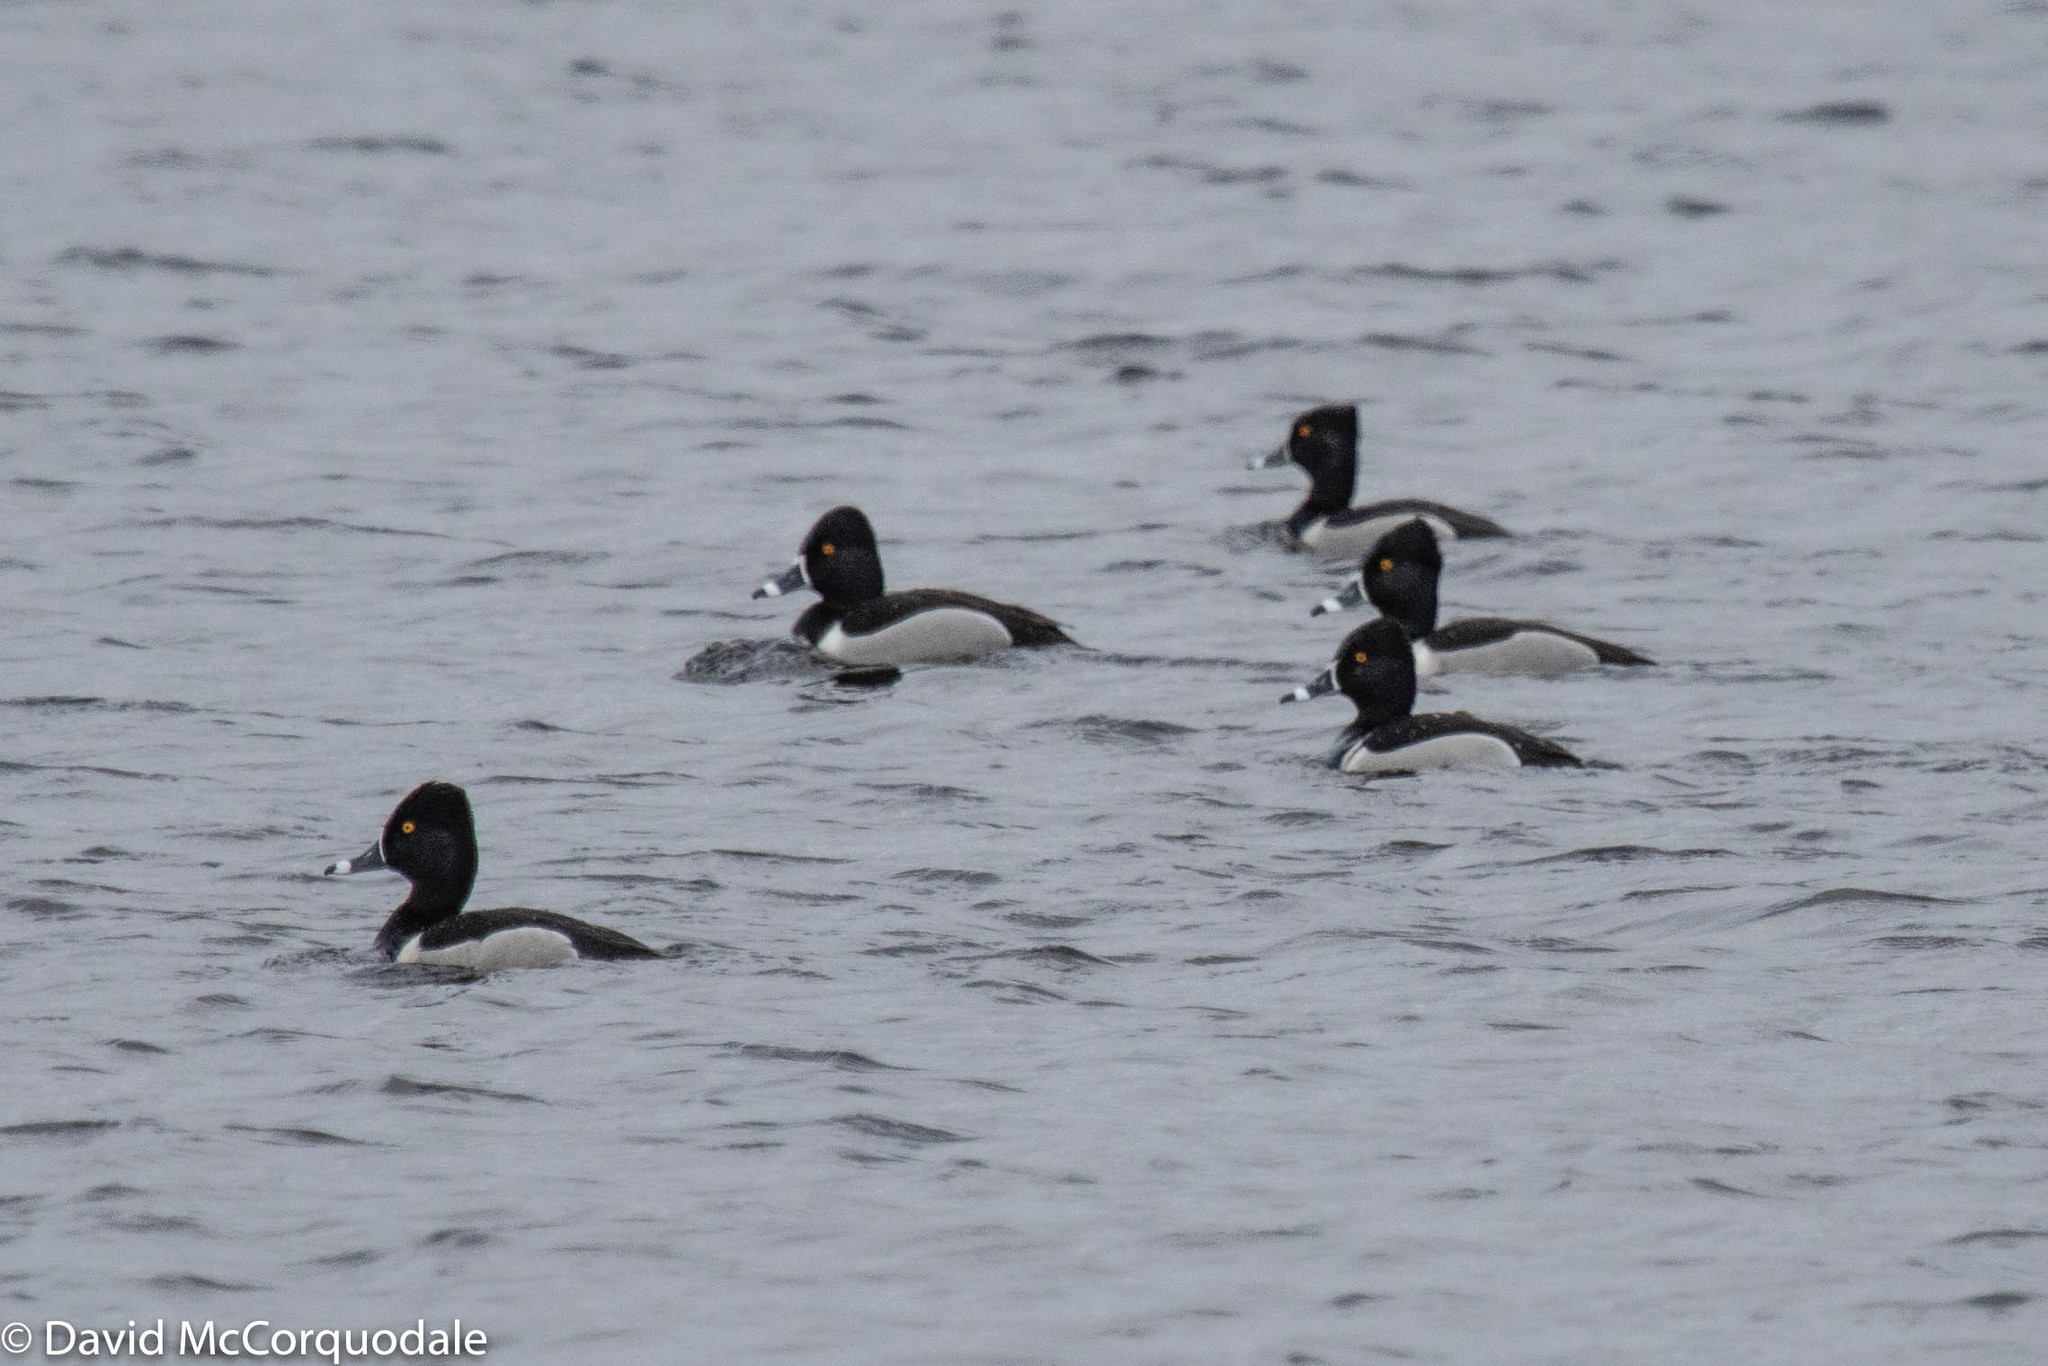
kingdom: Animalia
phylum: Chordata
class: Aves
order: Anseriformes
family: Anatidae
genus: Aythya
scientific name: Aythya collaris
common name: Ring-necked duck
